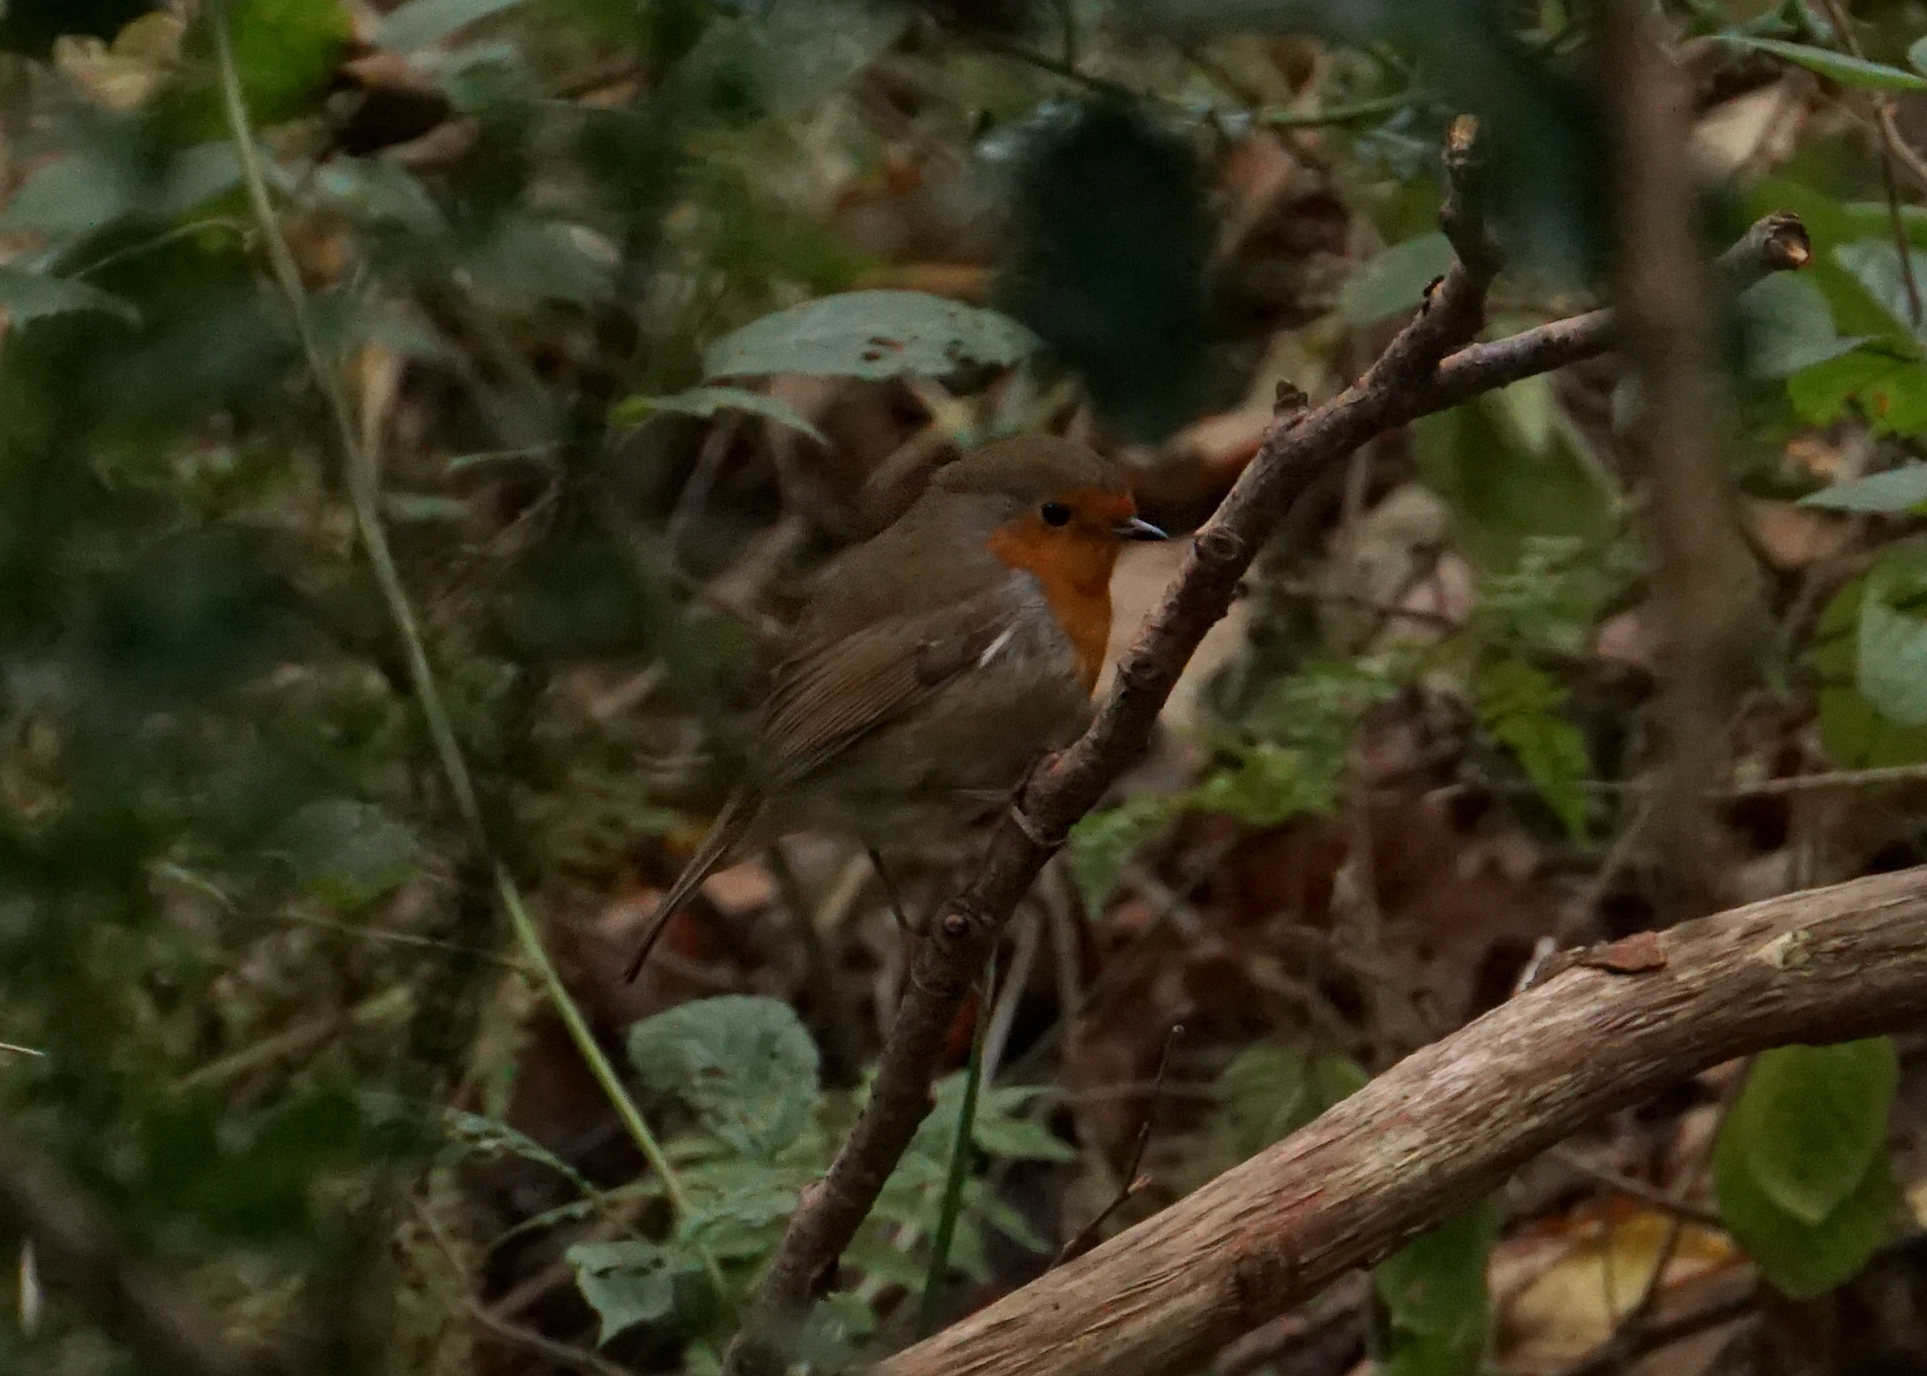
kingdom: Animalia
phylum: Chordata
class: Aves
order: Passeriformes
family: Muscicapidae
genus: Erithacus
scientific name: Erithacus rubecula
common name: European robin
